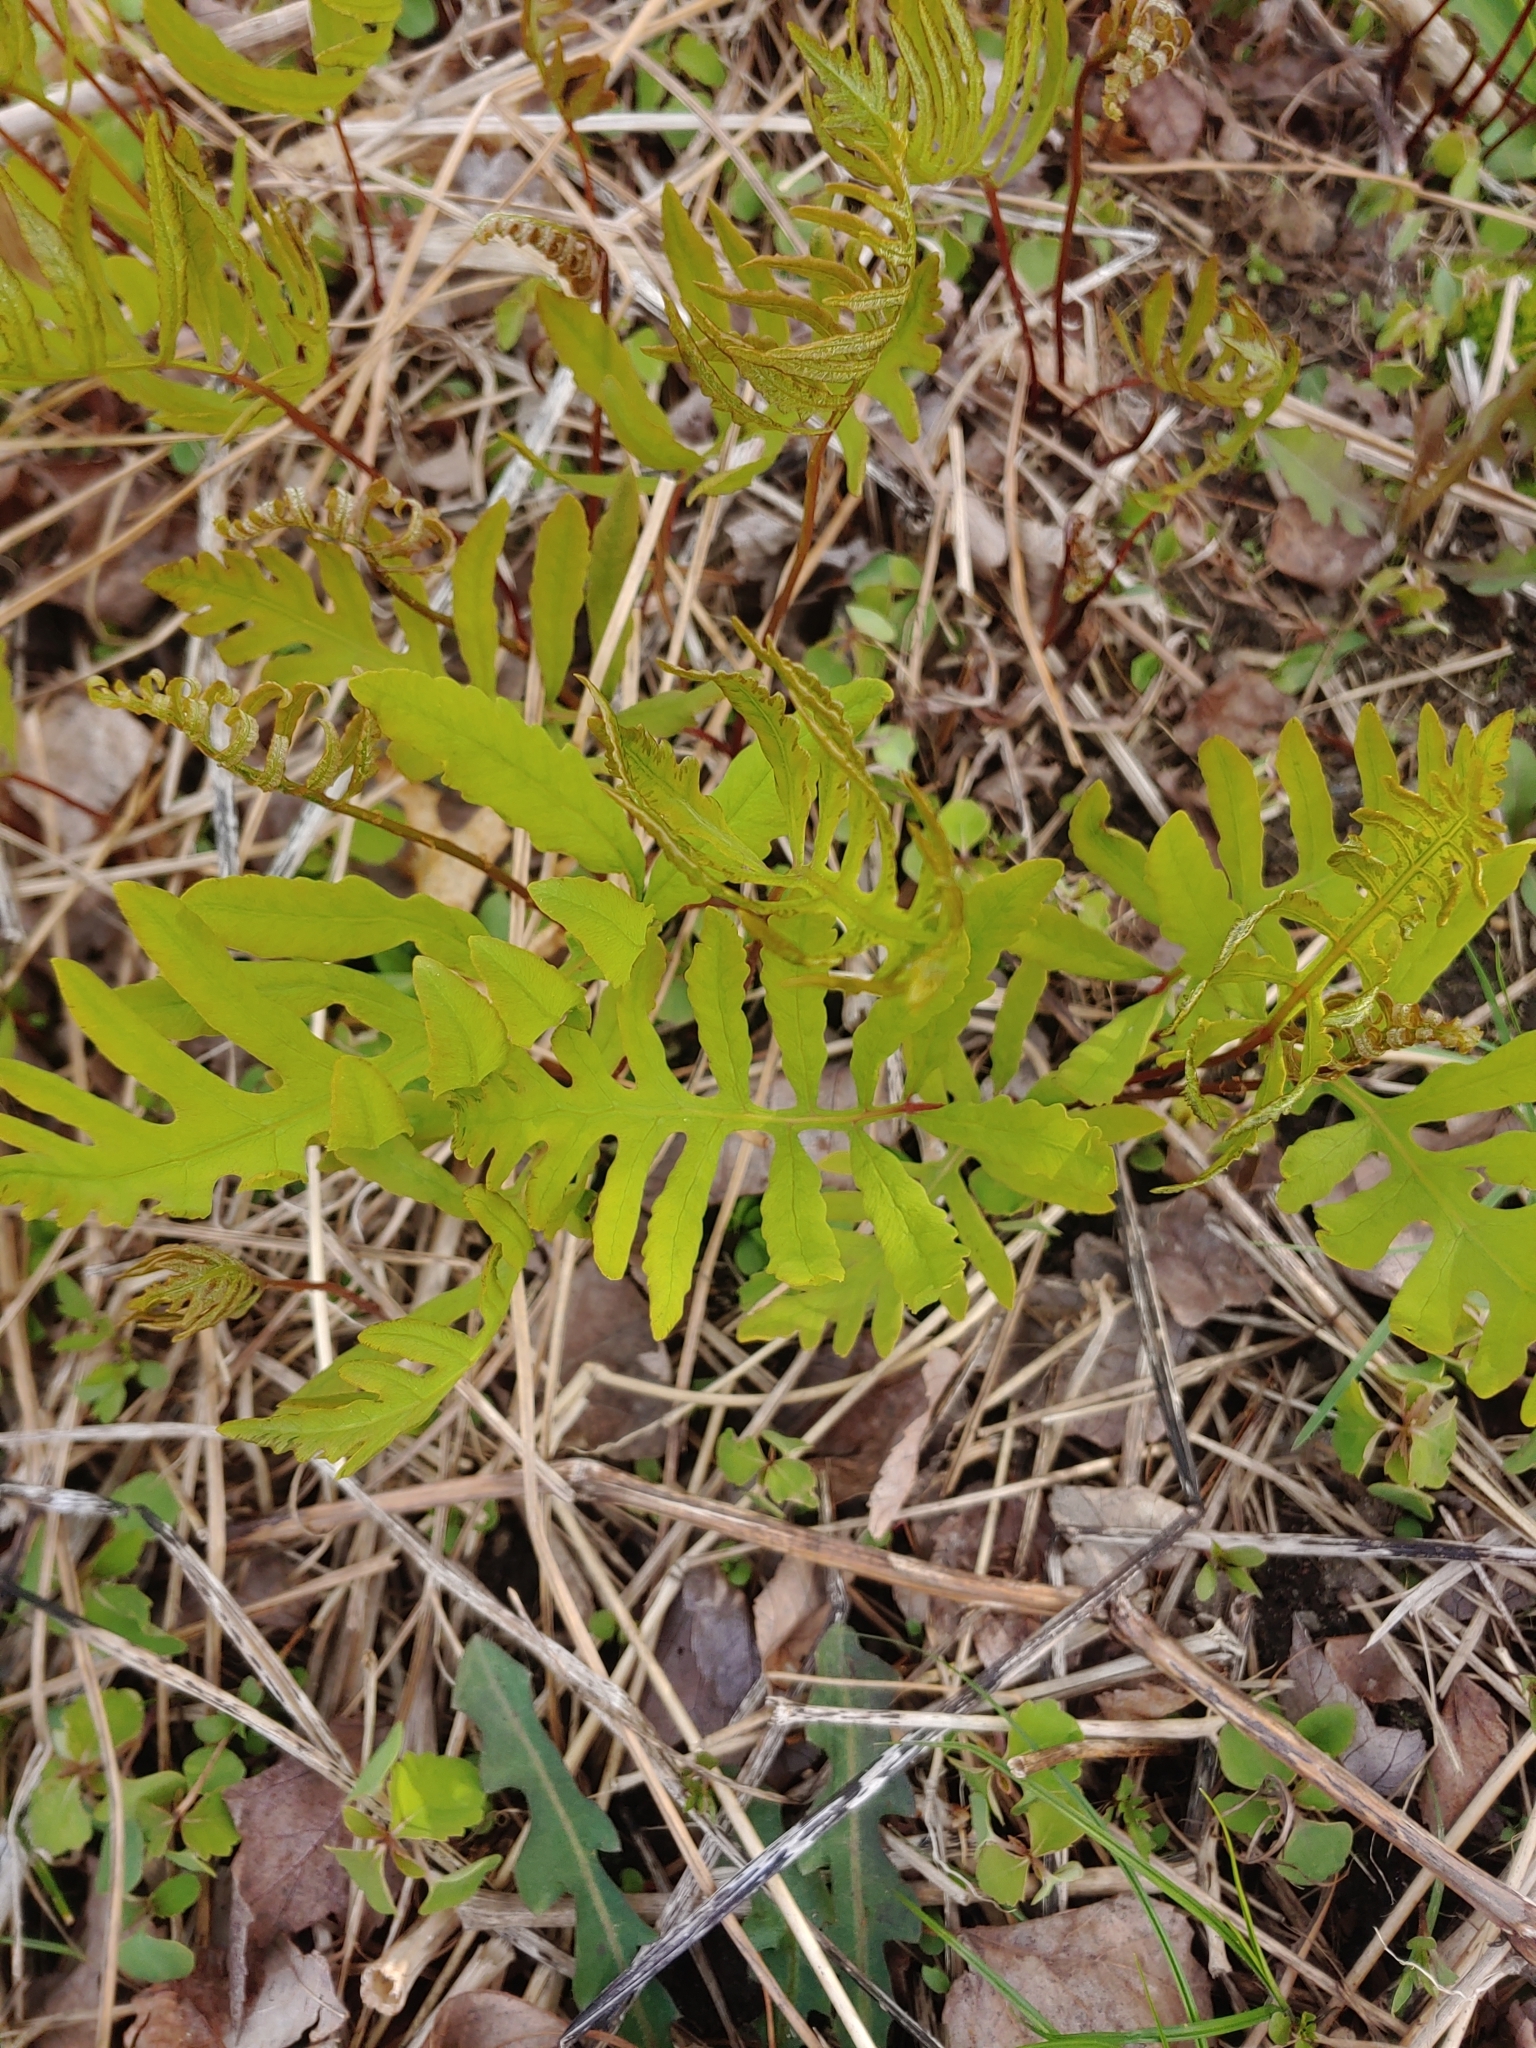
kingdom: Plantae
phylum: Tracheophyta
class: Polypodiopsida
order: Polypodiales
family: Onocleaceae
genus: Onoclea
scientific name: Onoclea sensibilis
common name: Sensitive fern
